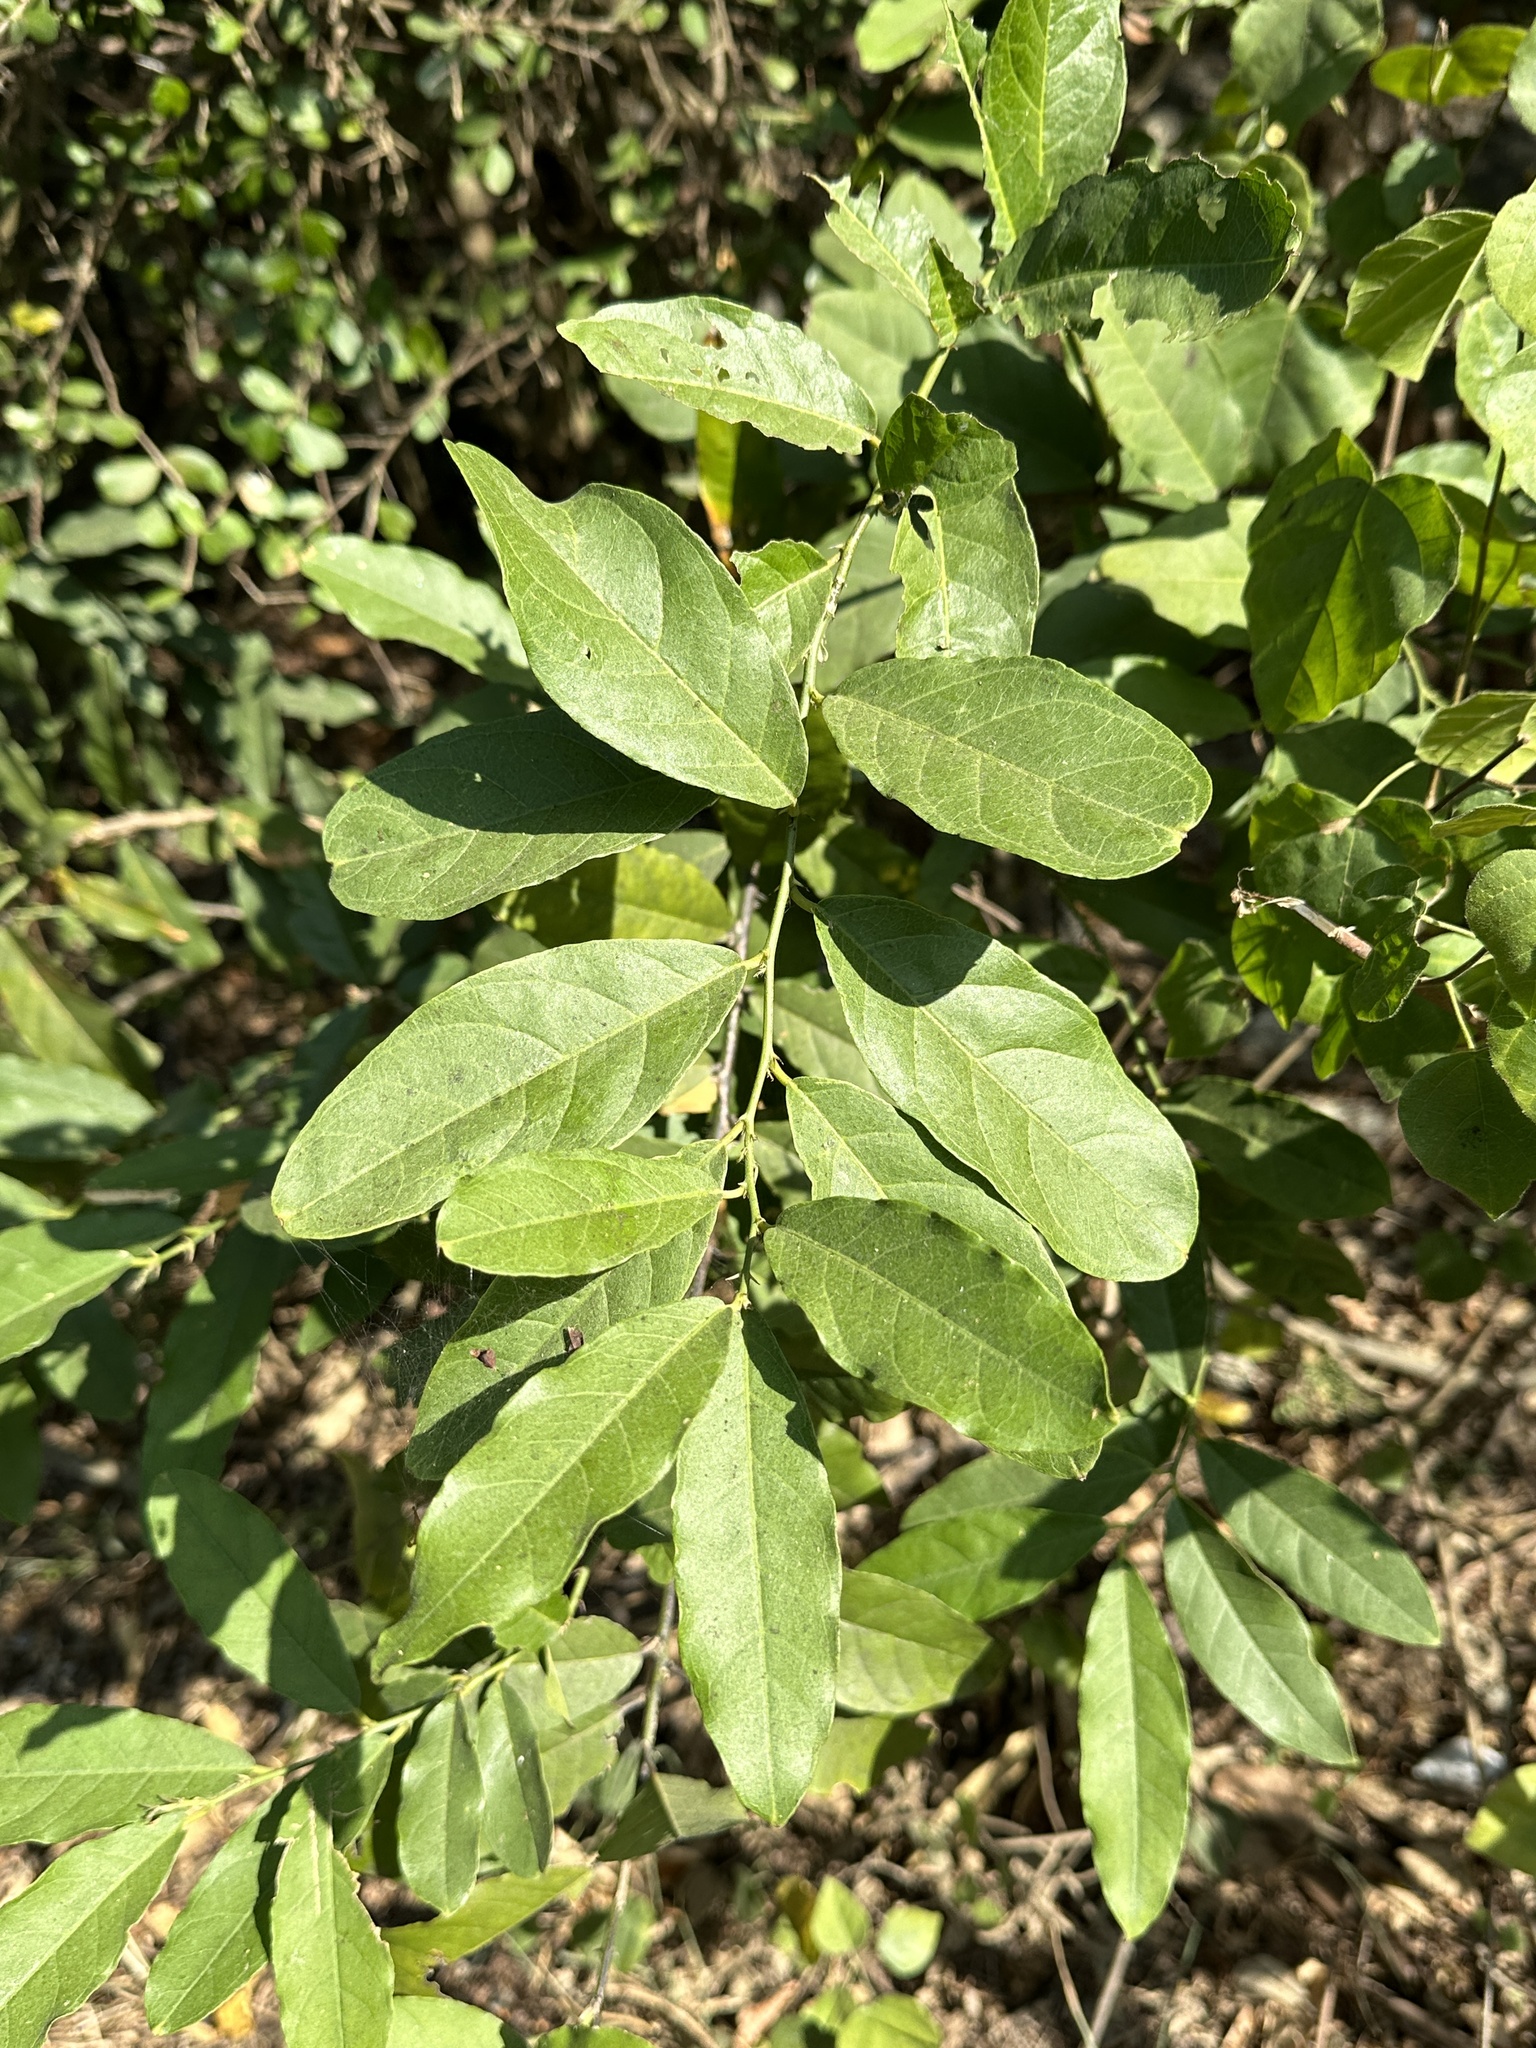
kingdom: Plantae
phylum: Tracheophyta
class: Magnoliopsida
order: Brassicales
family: Capparaceae
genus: Capparis
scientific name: Capparis henryi
